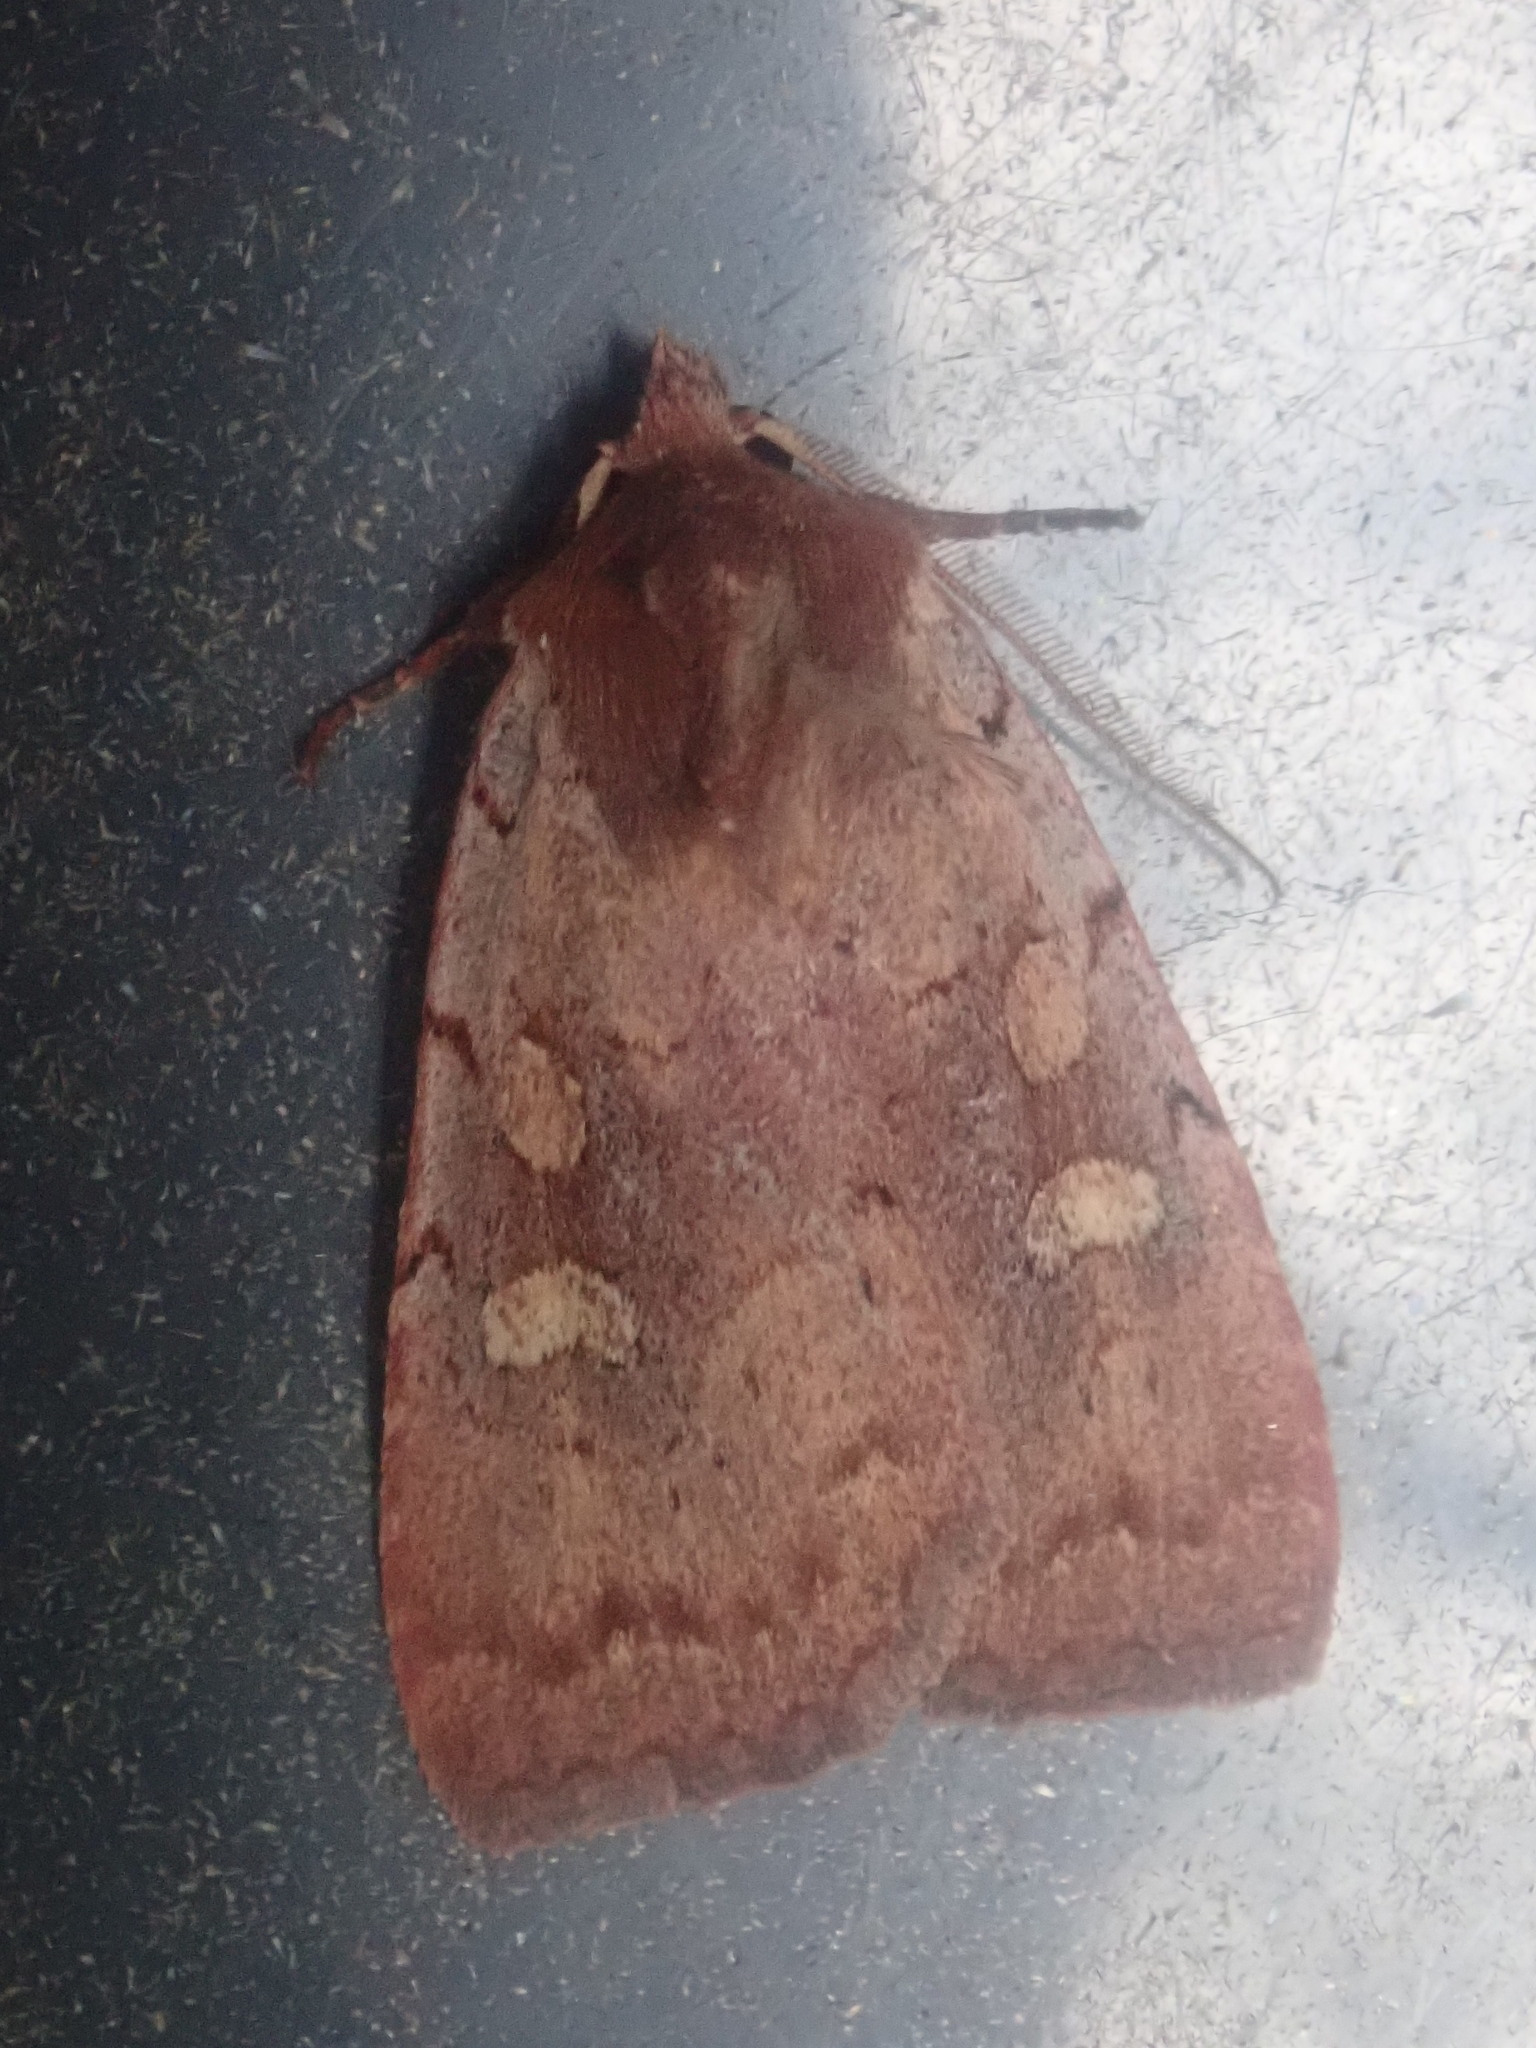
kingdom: Animalia
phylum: Arthropoda
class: Insecta
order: Lepidoptera
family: Noctuidae
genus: Xestia
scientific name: Xestia dilucida
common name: Dull reddish dart
